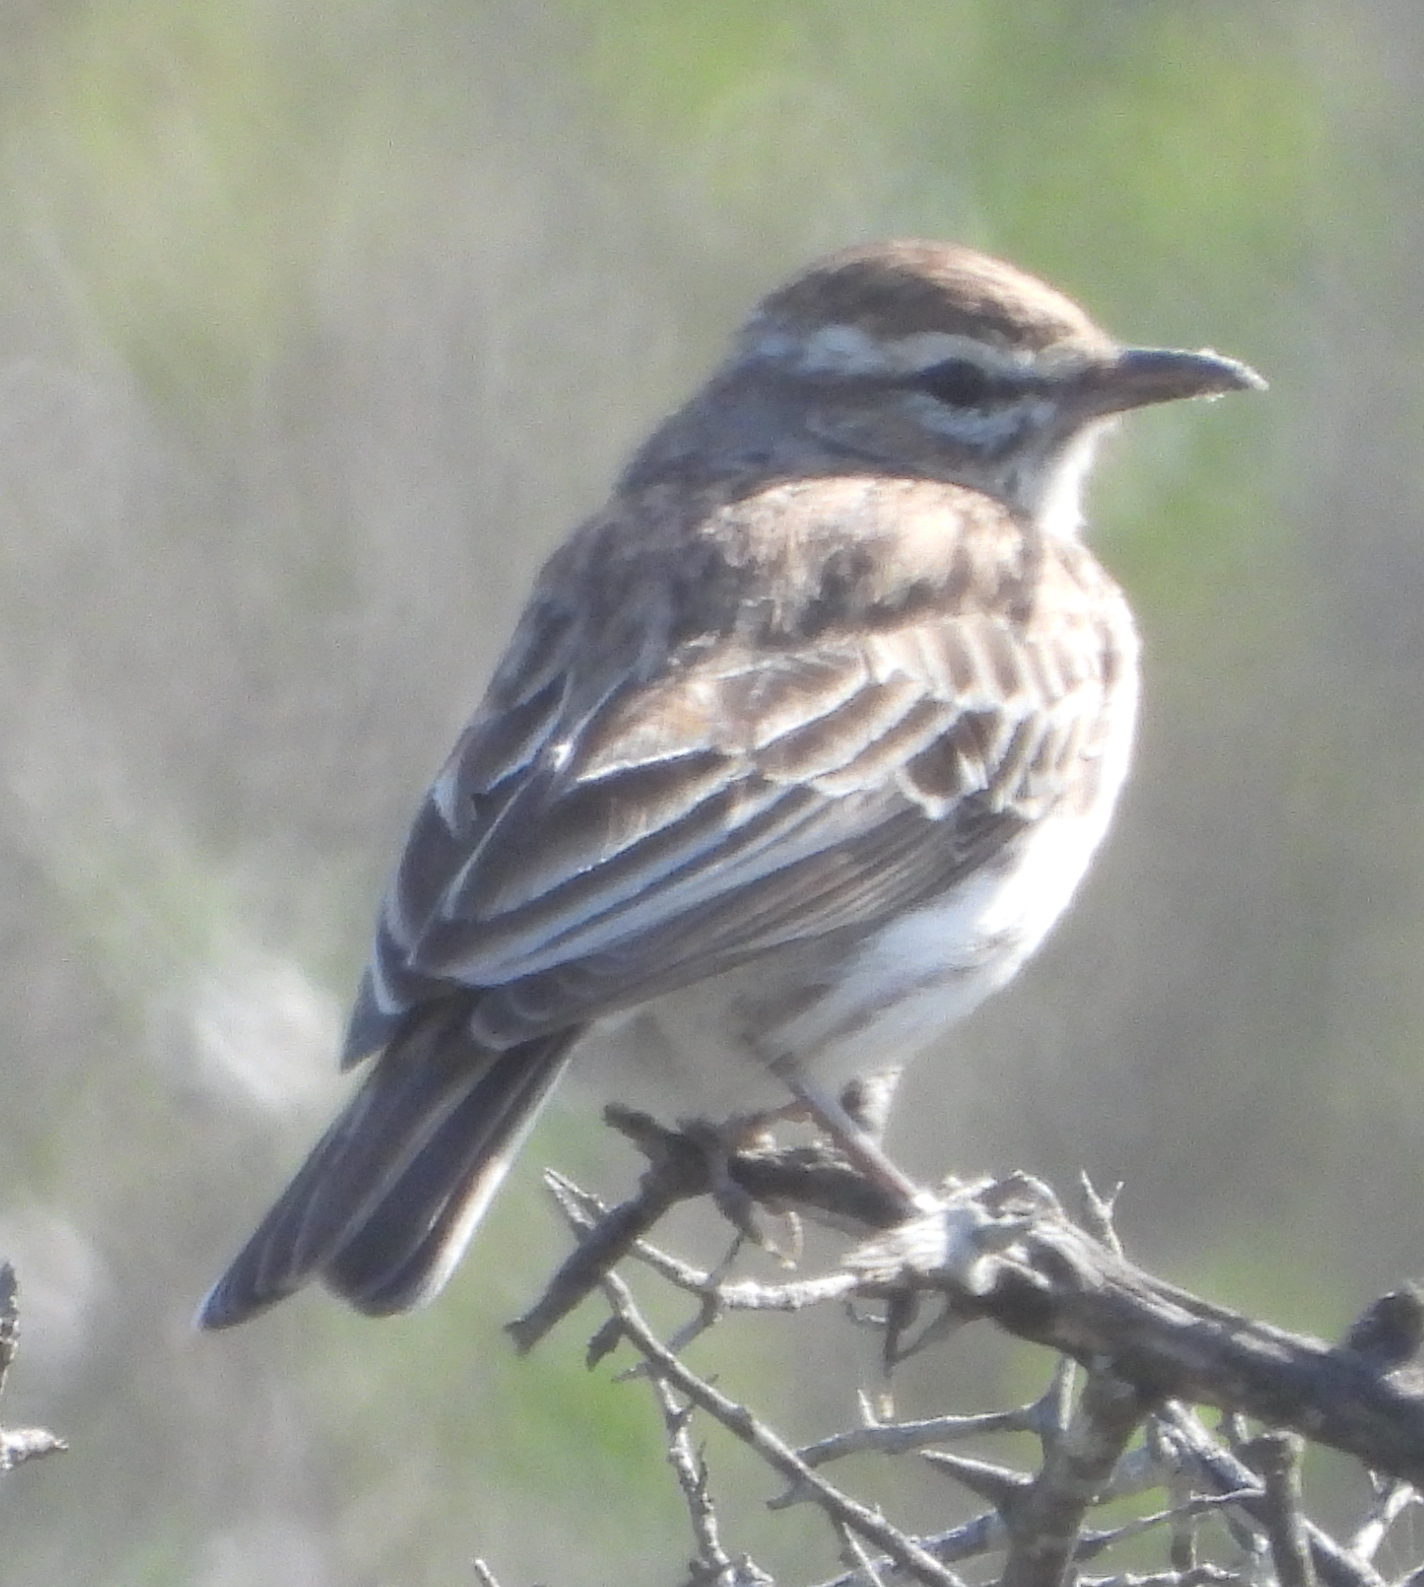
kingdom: Animalia
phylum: Chordata
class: Aves
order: Passeriformes
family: Alaudidae
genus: Calendulauda
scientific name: Calendulauda albescens
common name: Karoo lark
